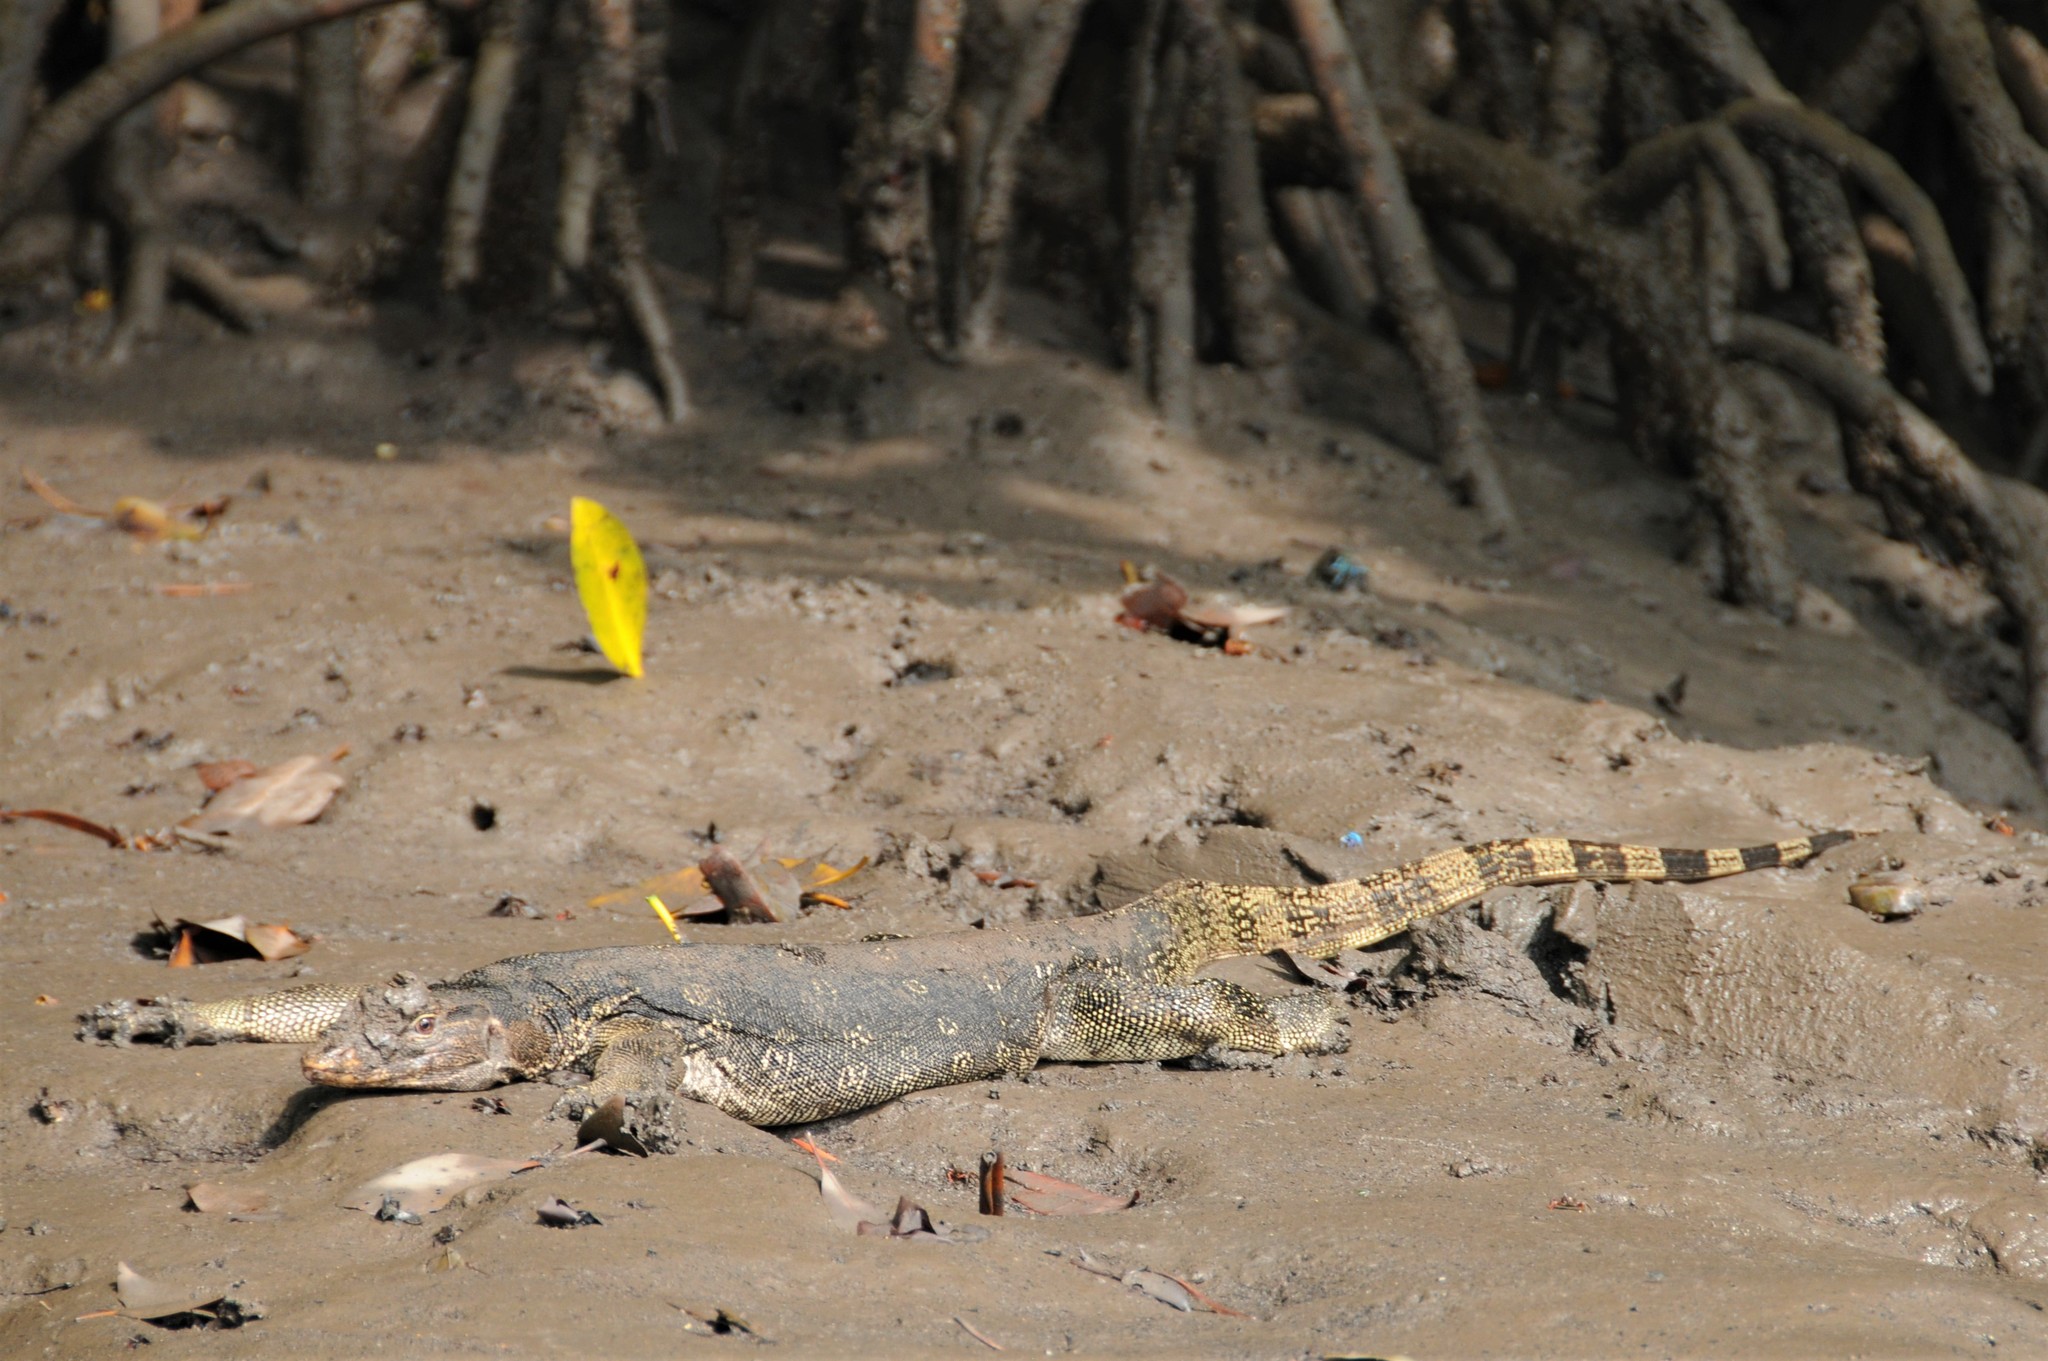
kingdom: Animalia
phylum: Chordata
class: Squamata
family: Varanidae
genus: Varanus
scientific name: Varanus salvator
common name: Common water monitor
